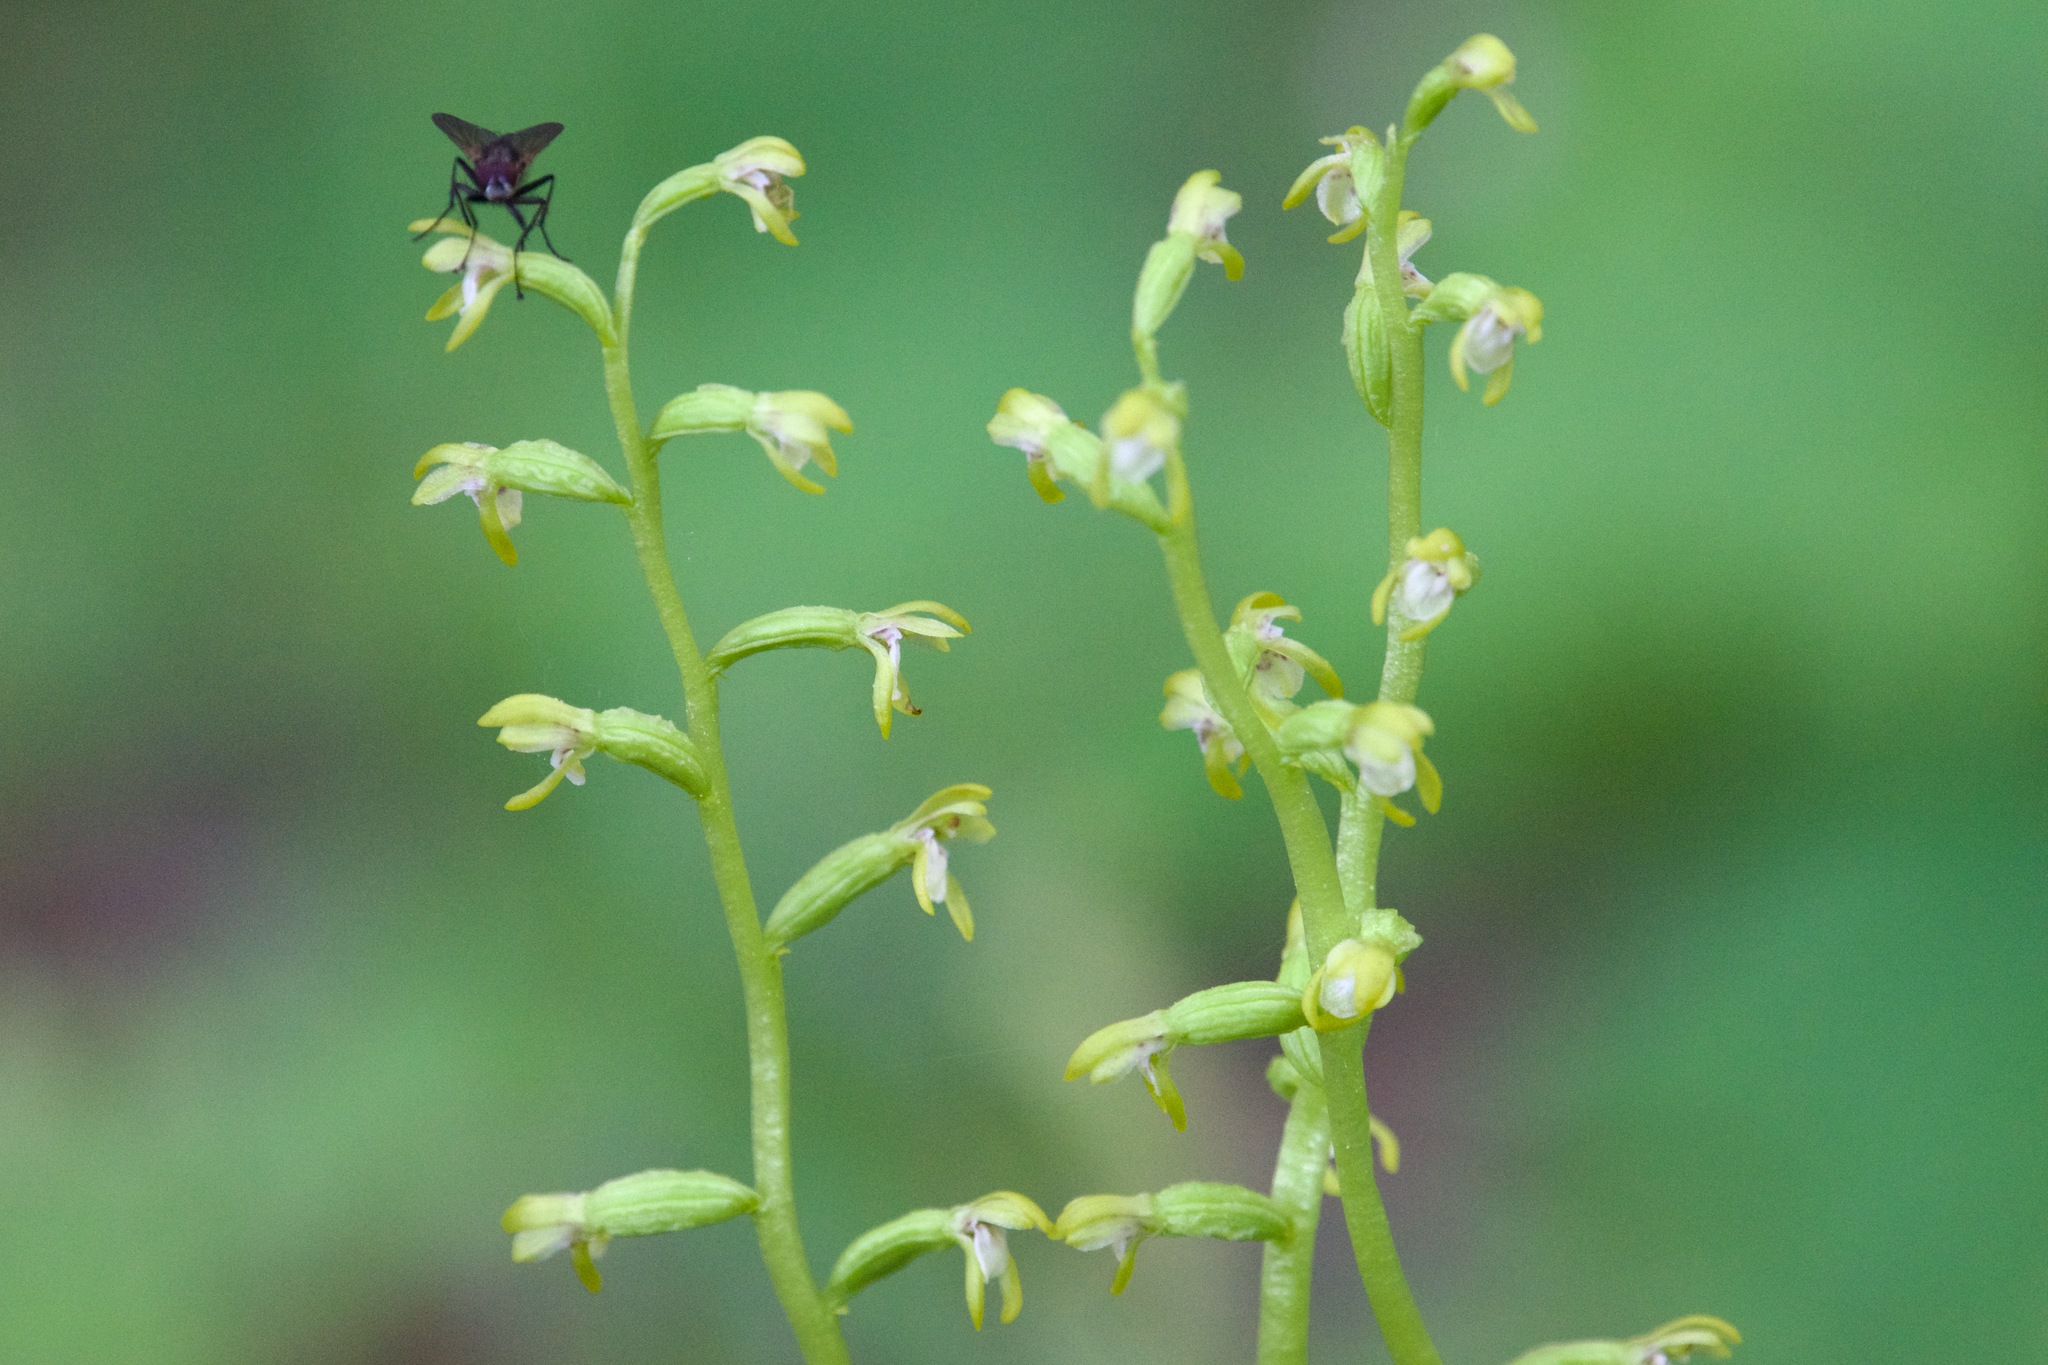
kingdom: Plantae
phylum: Tracheophyta
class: Liliopsida
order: Asparagales
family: Orchidaceae
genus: Corallorhiza
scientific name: Corallorhiza trifida
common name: Yellow coralroot
